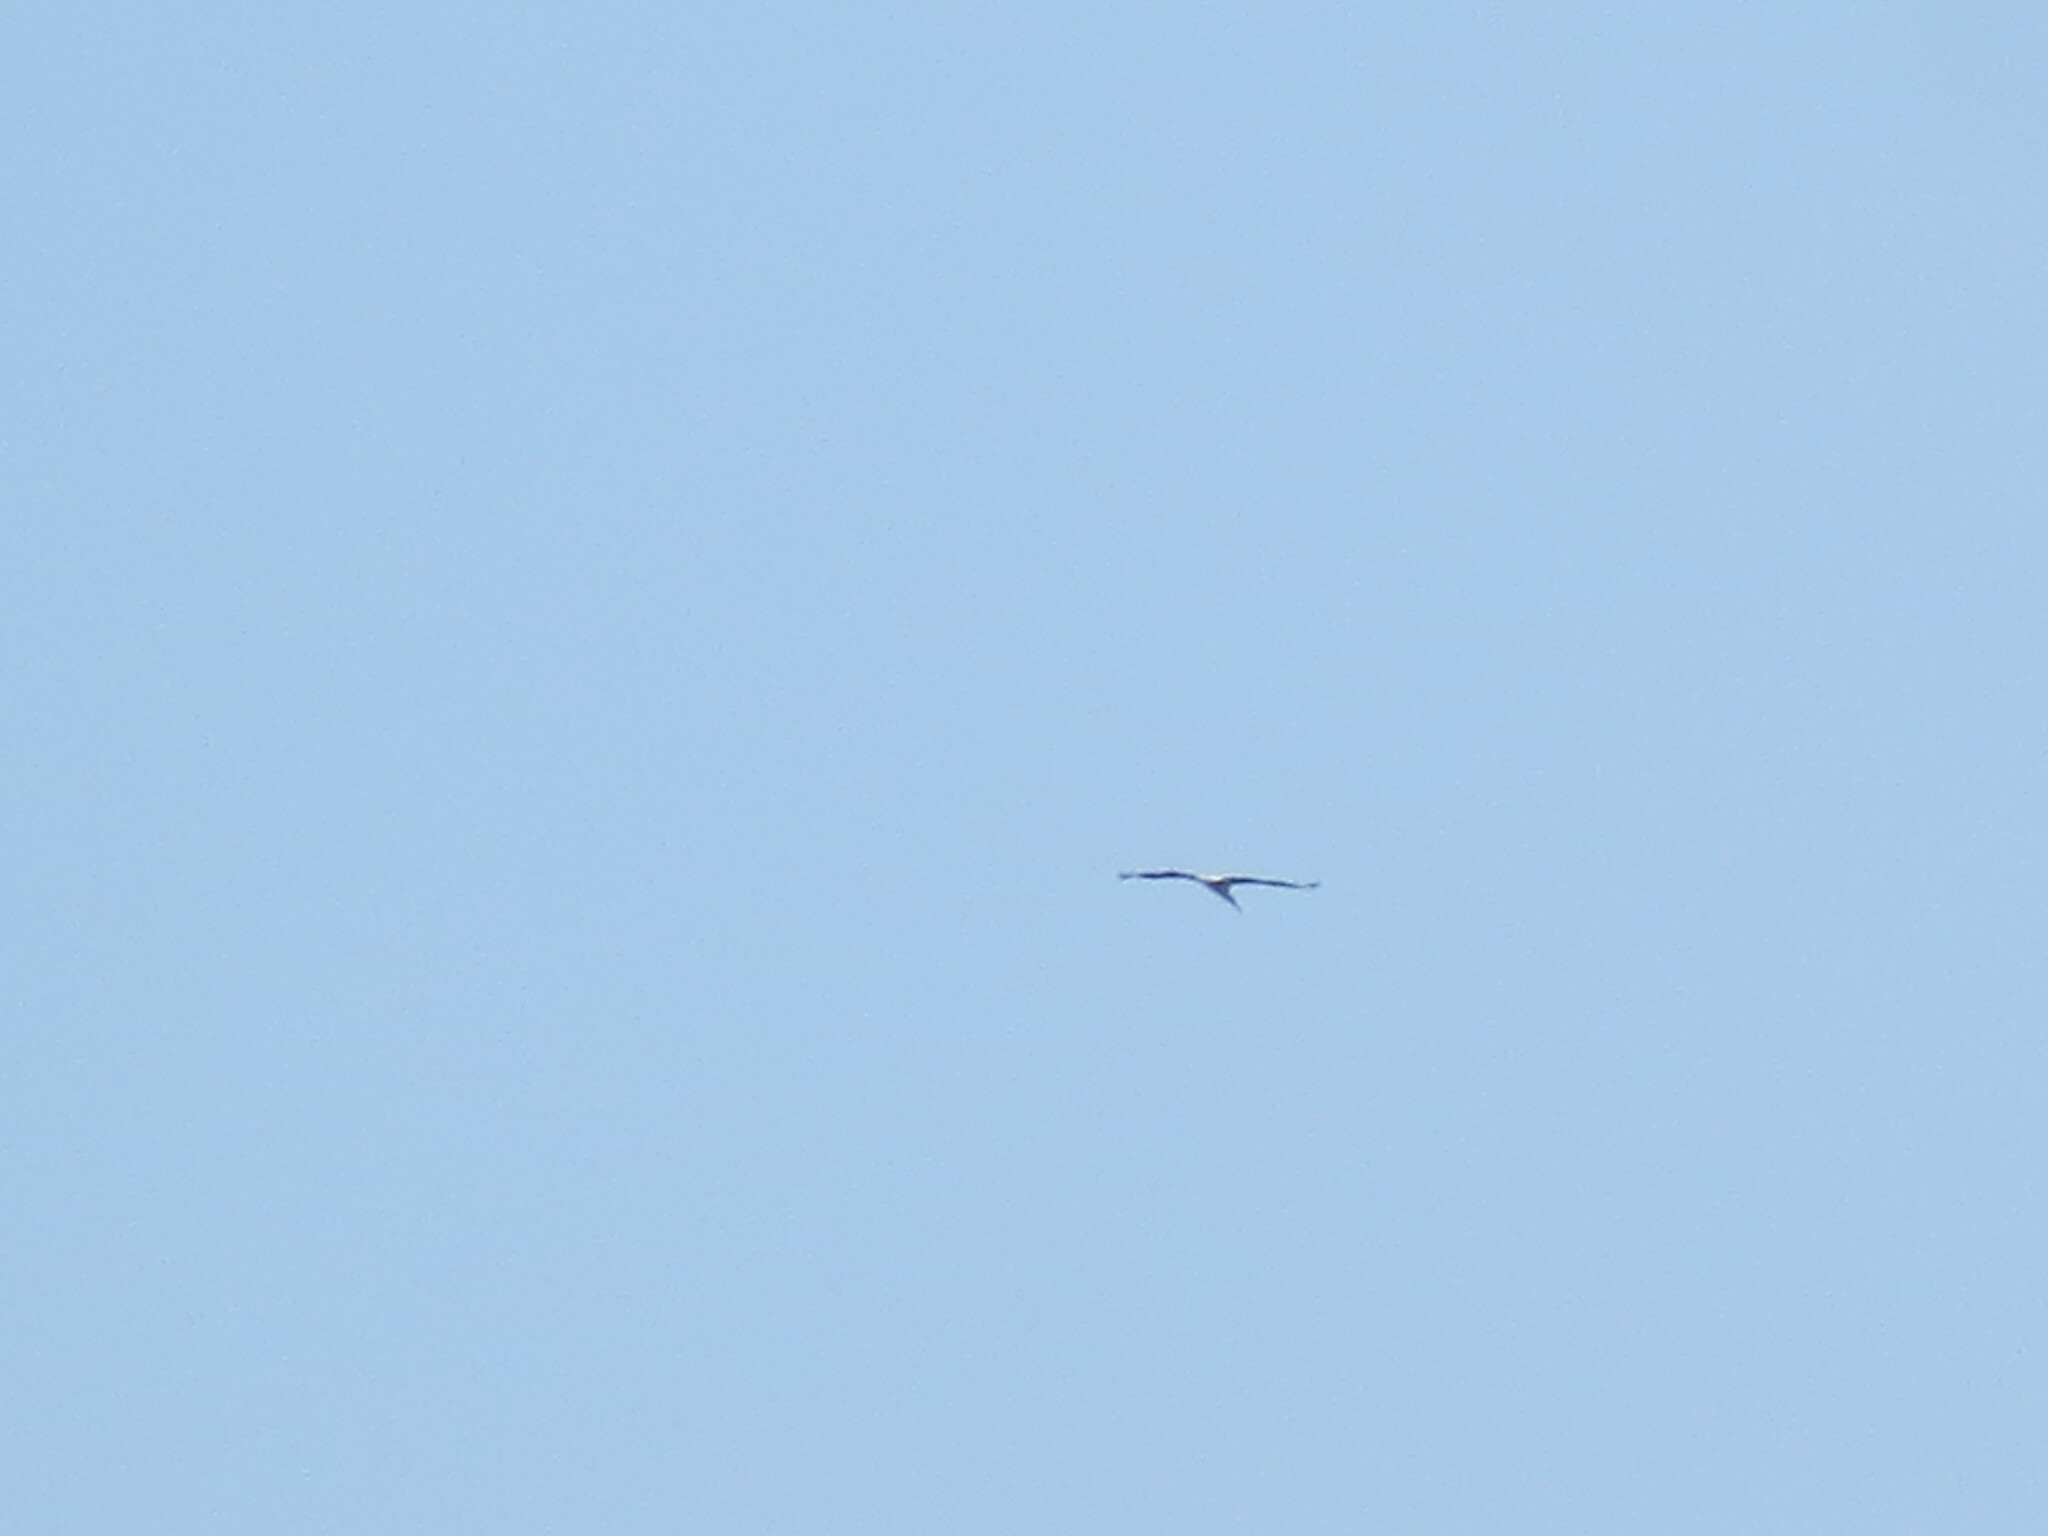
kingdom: Animalia
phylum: Chordata
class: Aves
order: Ciconiiformes
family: Ciconiidae
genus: Mycteria
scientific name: Mycteria americana
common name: Wood stork
